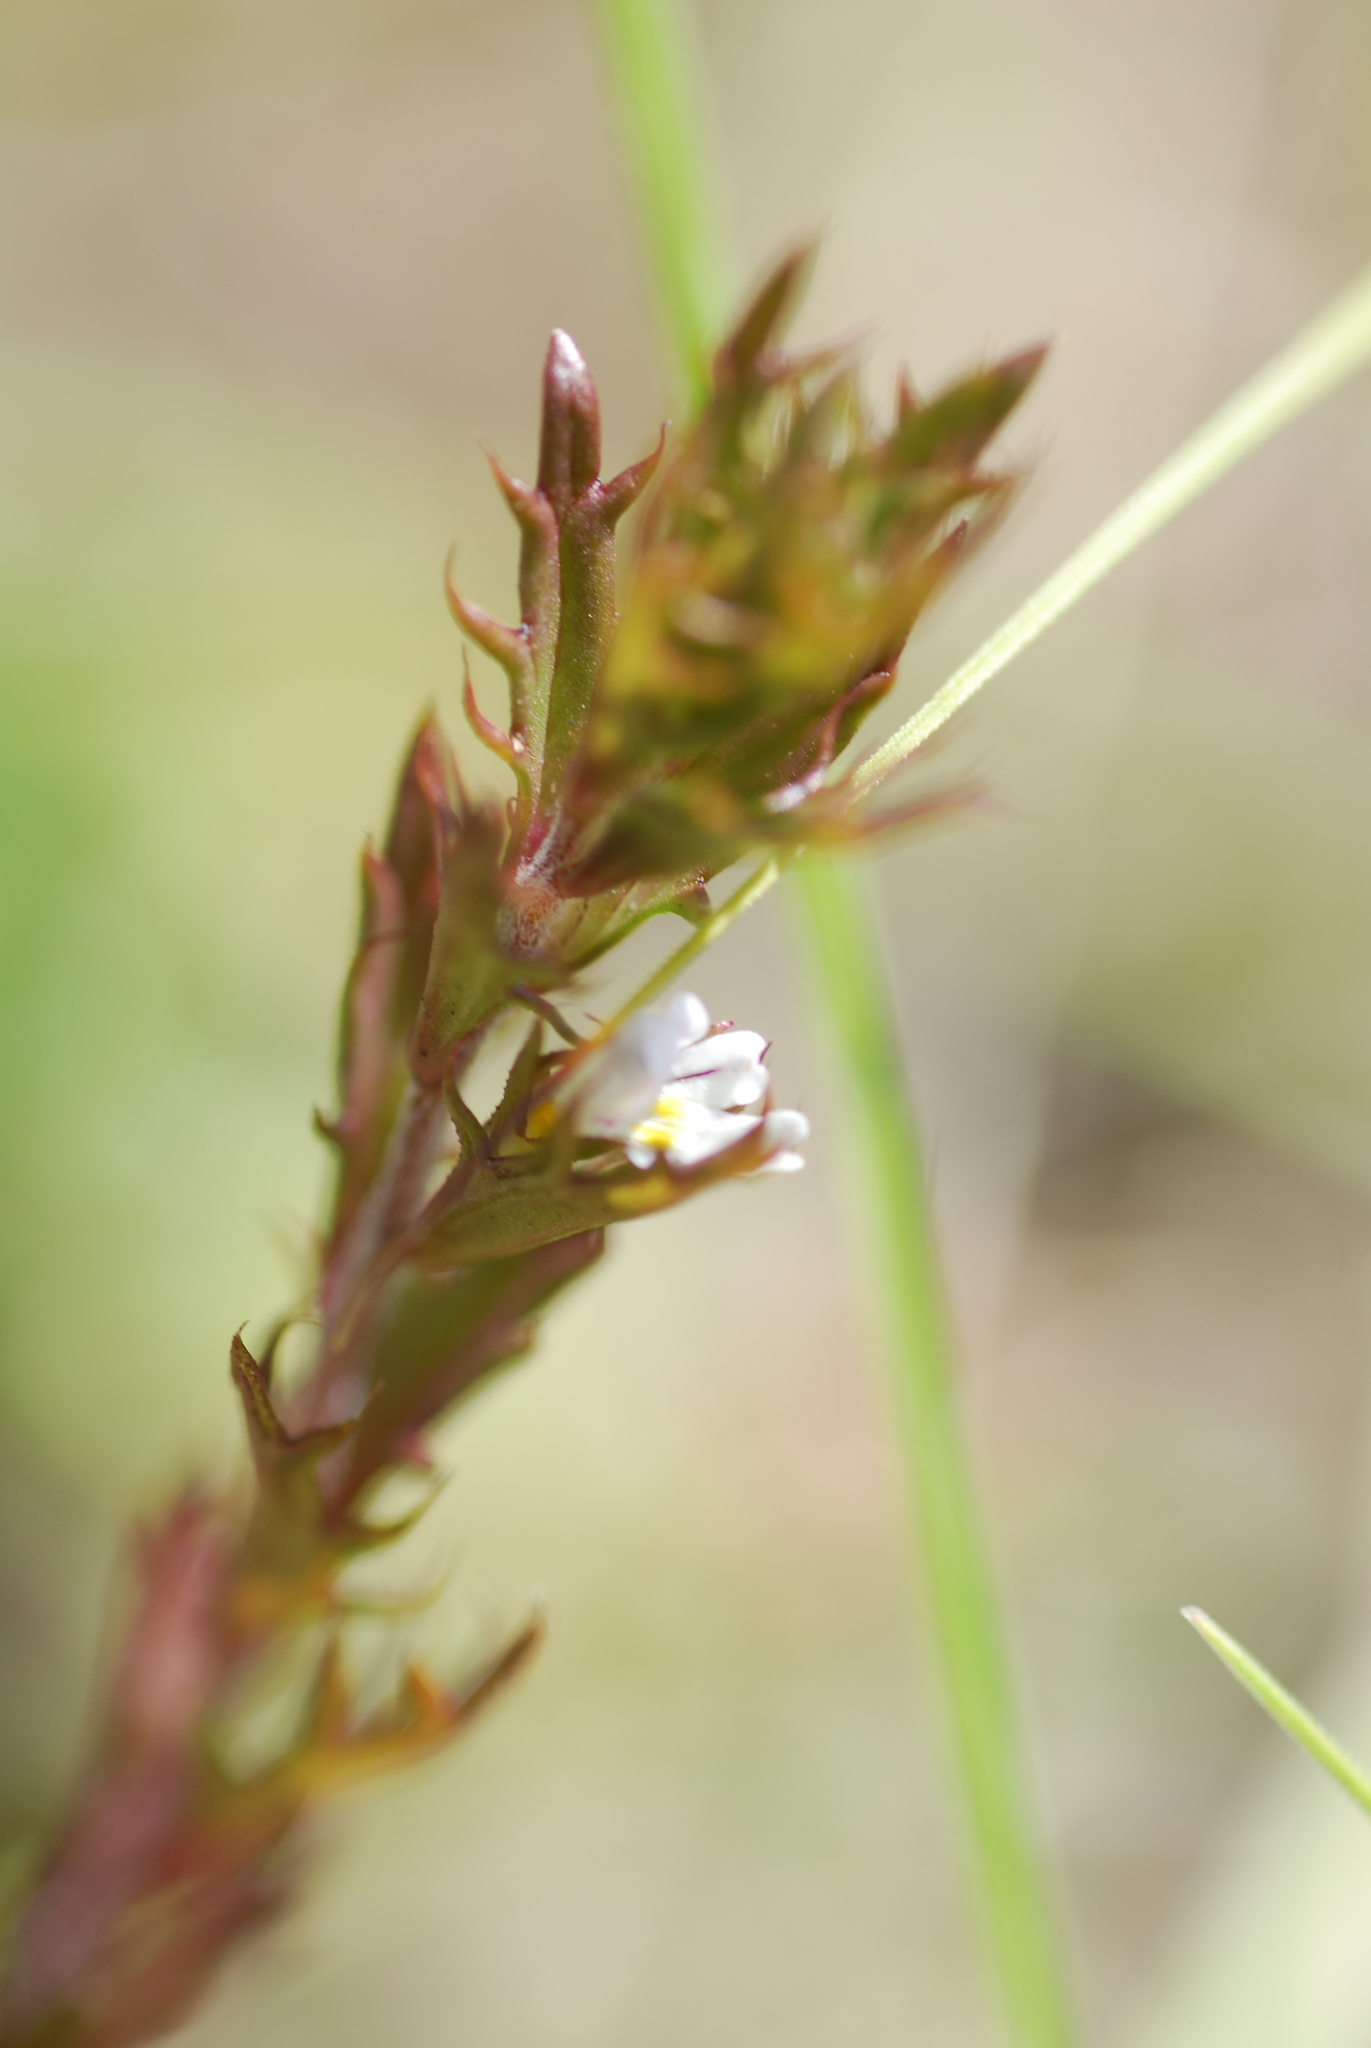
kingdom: Plantae
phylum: Tracheophyta
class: Magnoliopsida
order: Lamiales
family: Orobanchaceae
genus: Euphrasia
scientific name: Euphrasia salisburgensis
